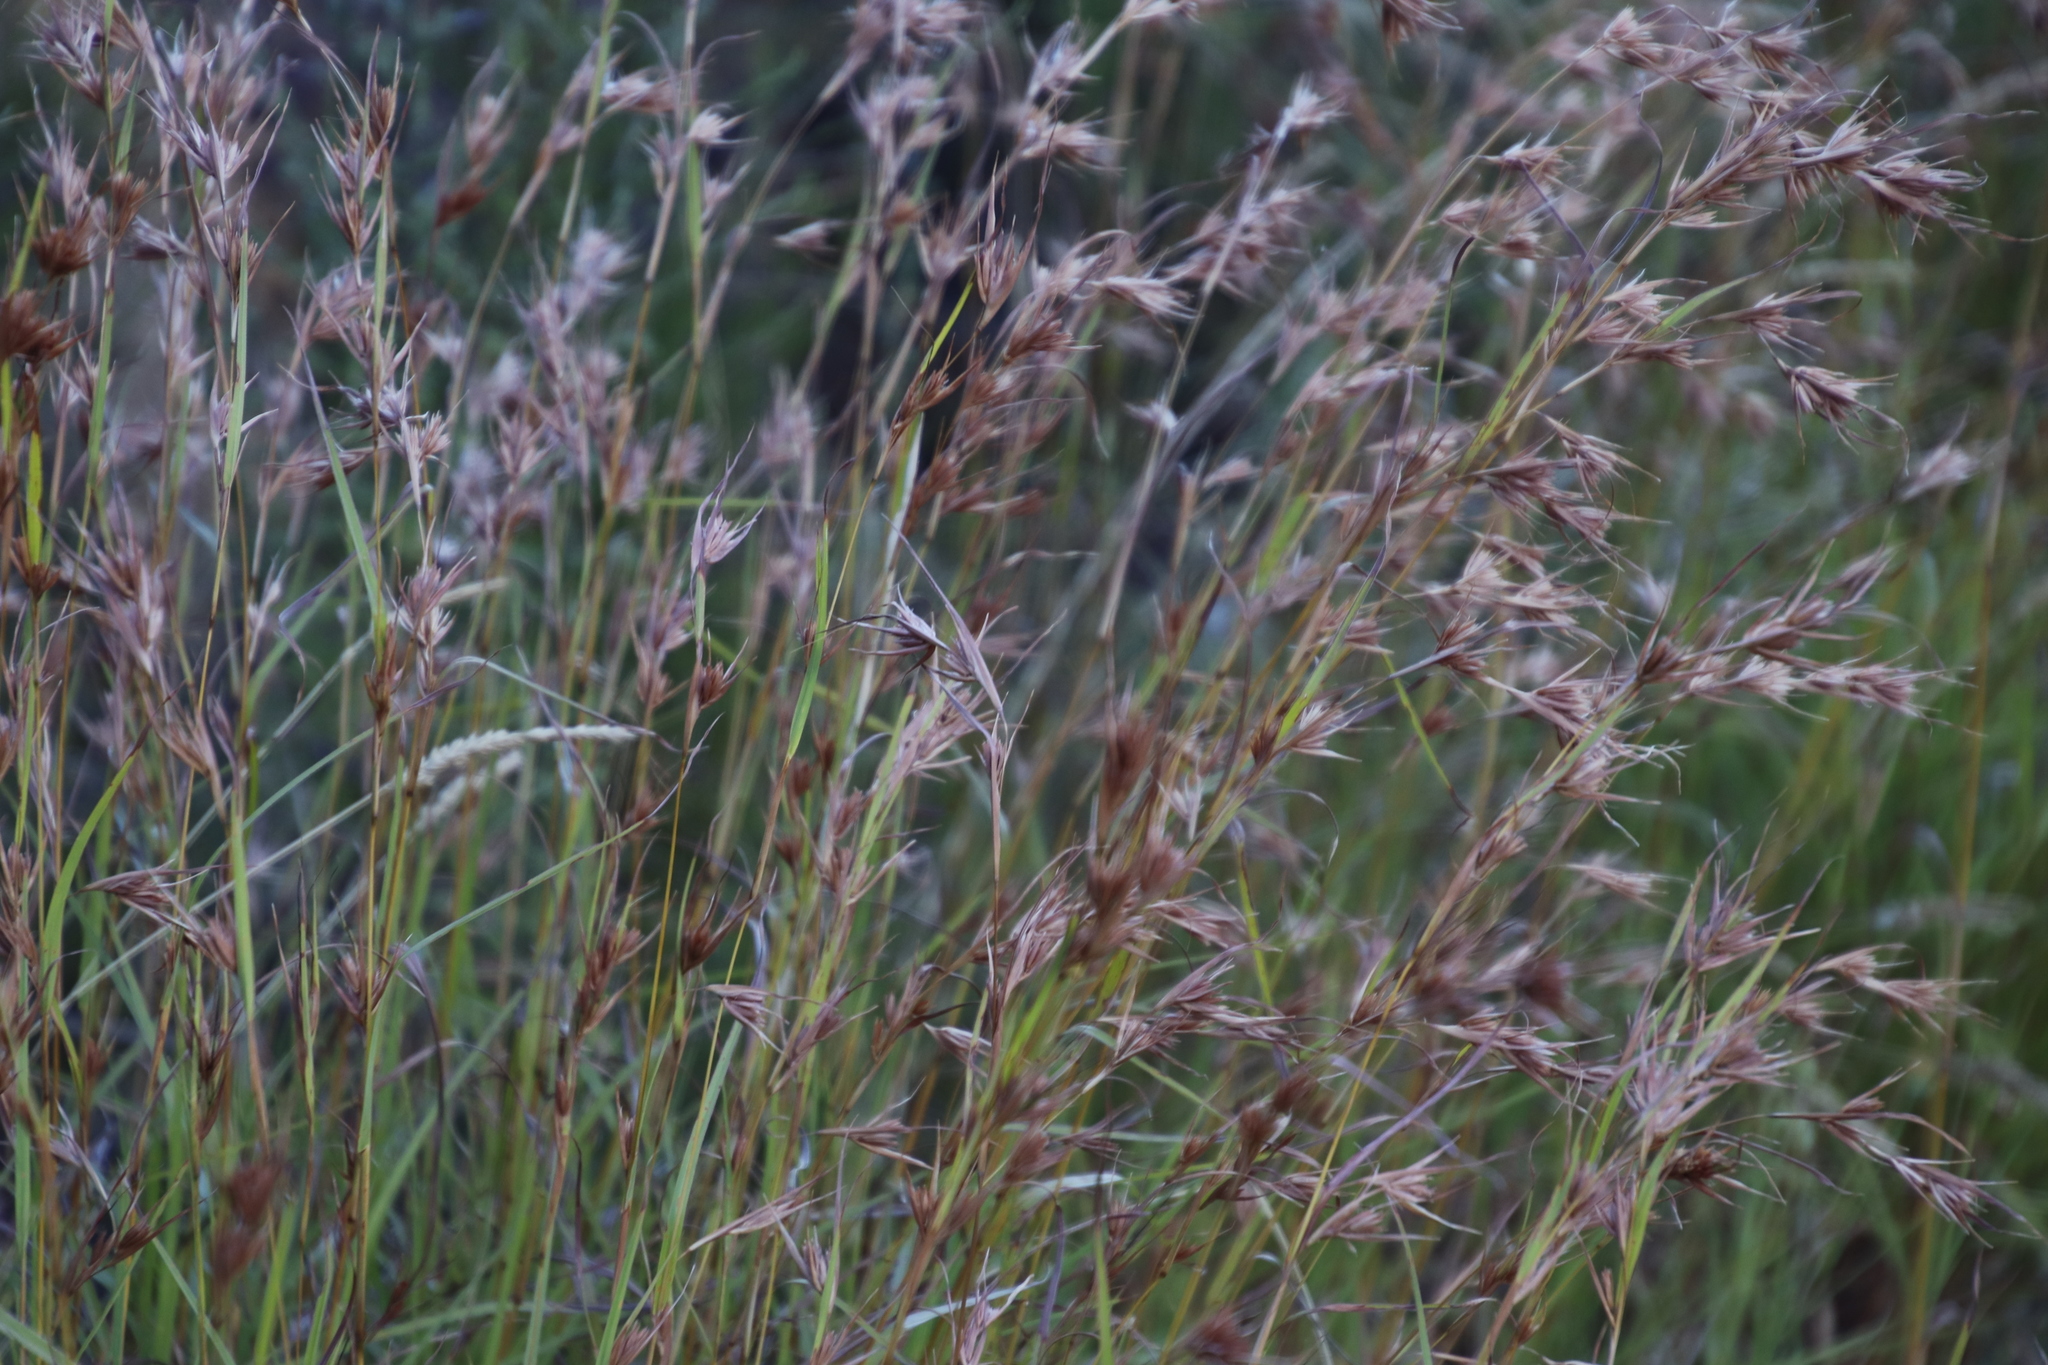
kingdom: Plantae
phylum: Tracheophyta
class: Liliopsida
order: Poales
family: Poaceae
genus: Themeda
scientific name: Themeda triandra
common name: Kangaroo grass
